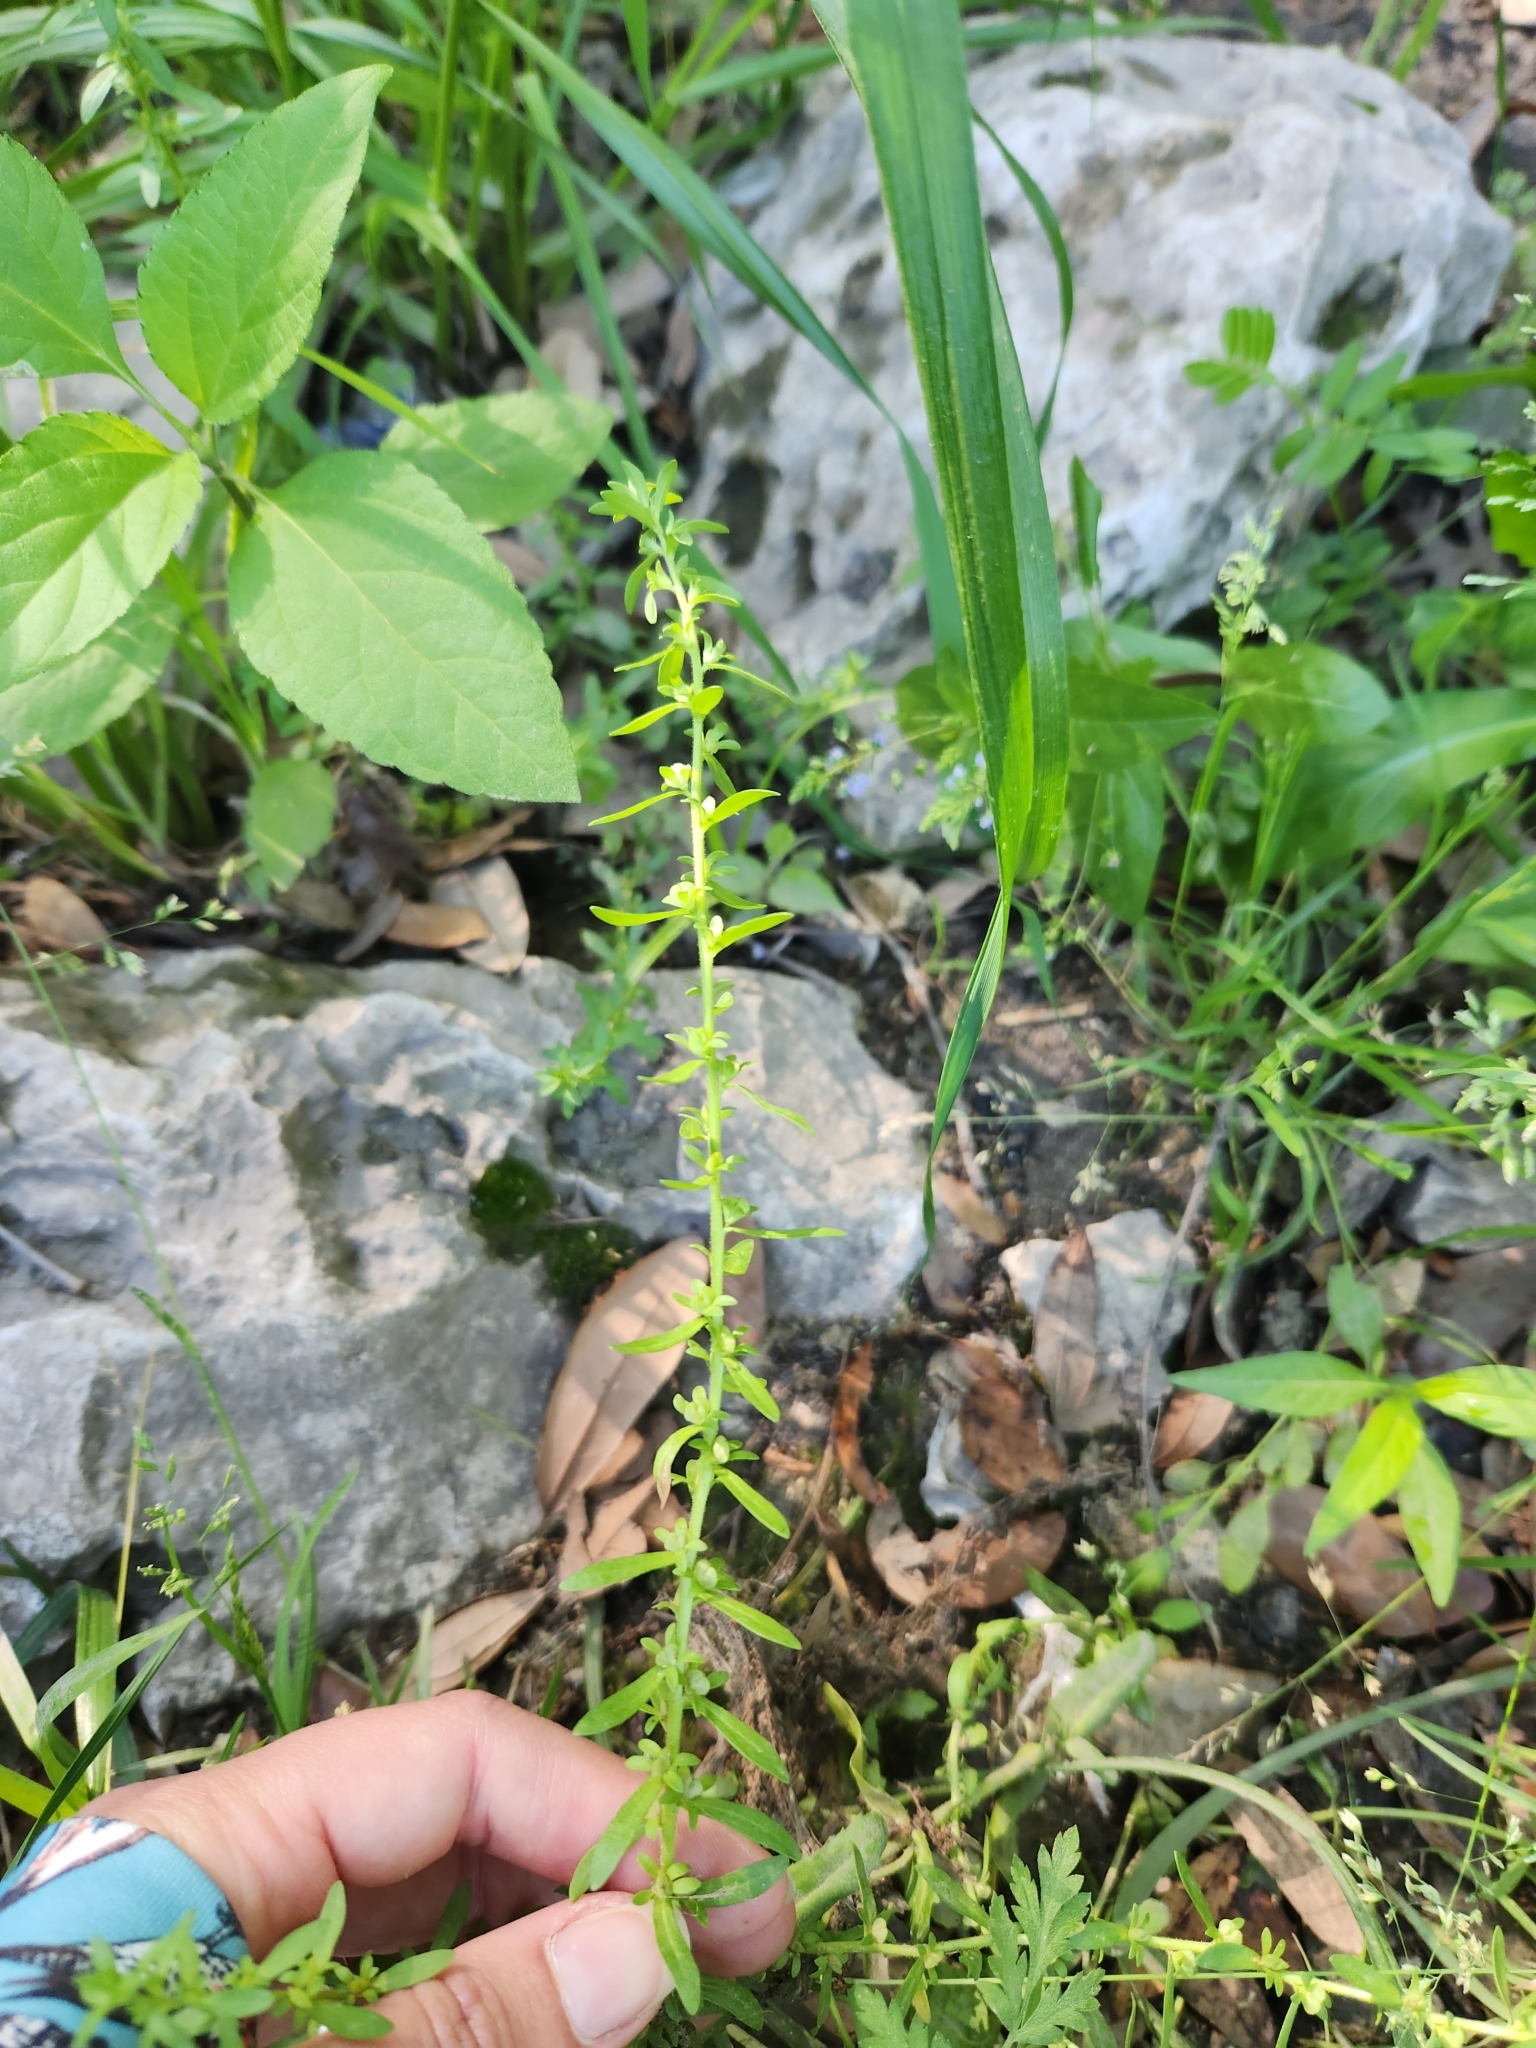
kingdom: Plantae
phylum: Tracheophyta
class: Magnoliopsida
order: Lamiales
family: Plantaginaceae
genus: Veronica
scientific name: Veronica peregrina
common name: Neckweed
